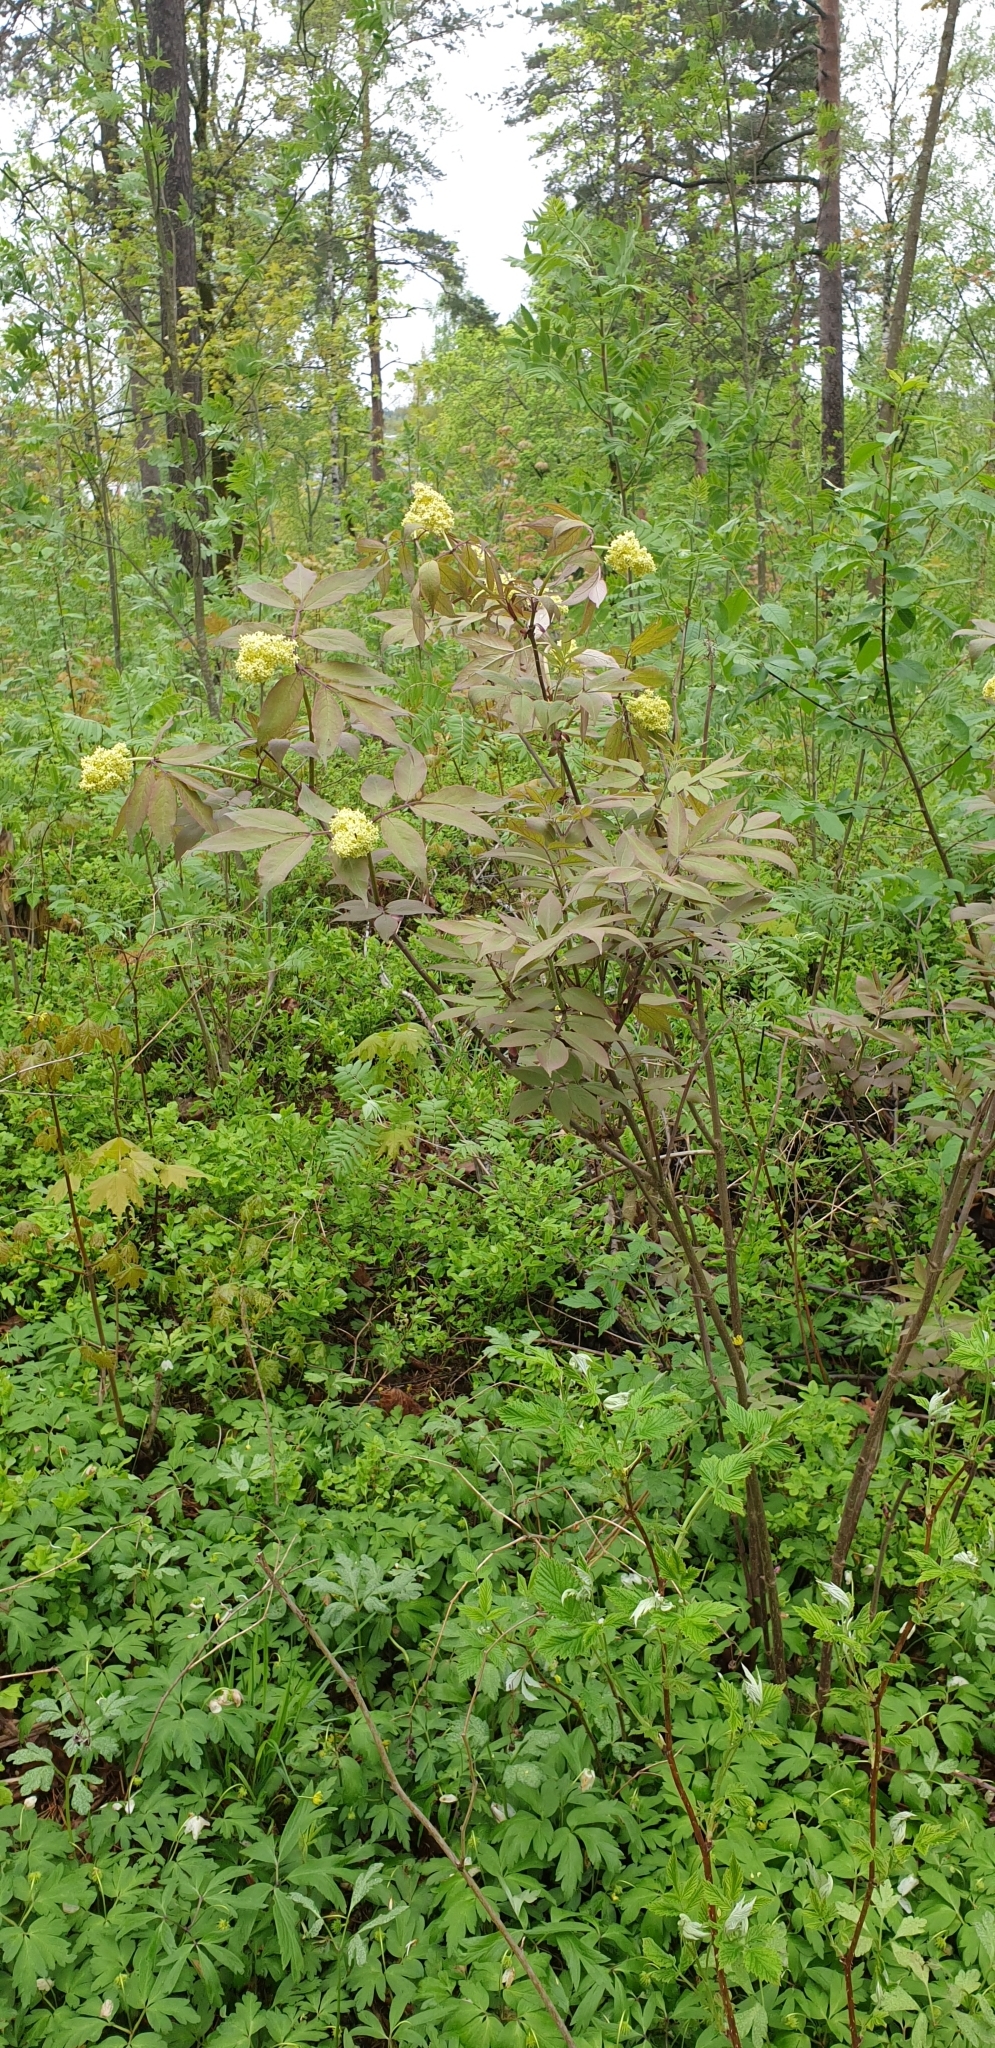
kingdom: Plantae
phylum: Tracheophyta
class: Magnoliopsida
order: Dipsacales
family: Viburnaceae
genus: Sambucus
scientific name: Sambucus racemosa
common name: Red-berried elder
